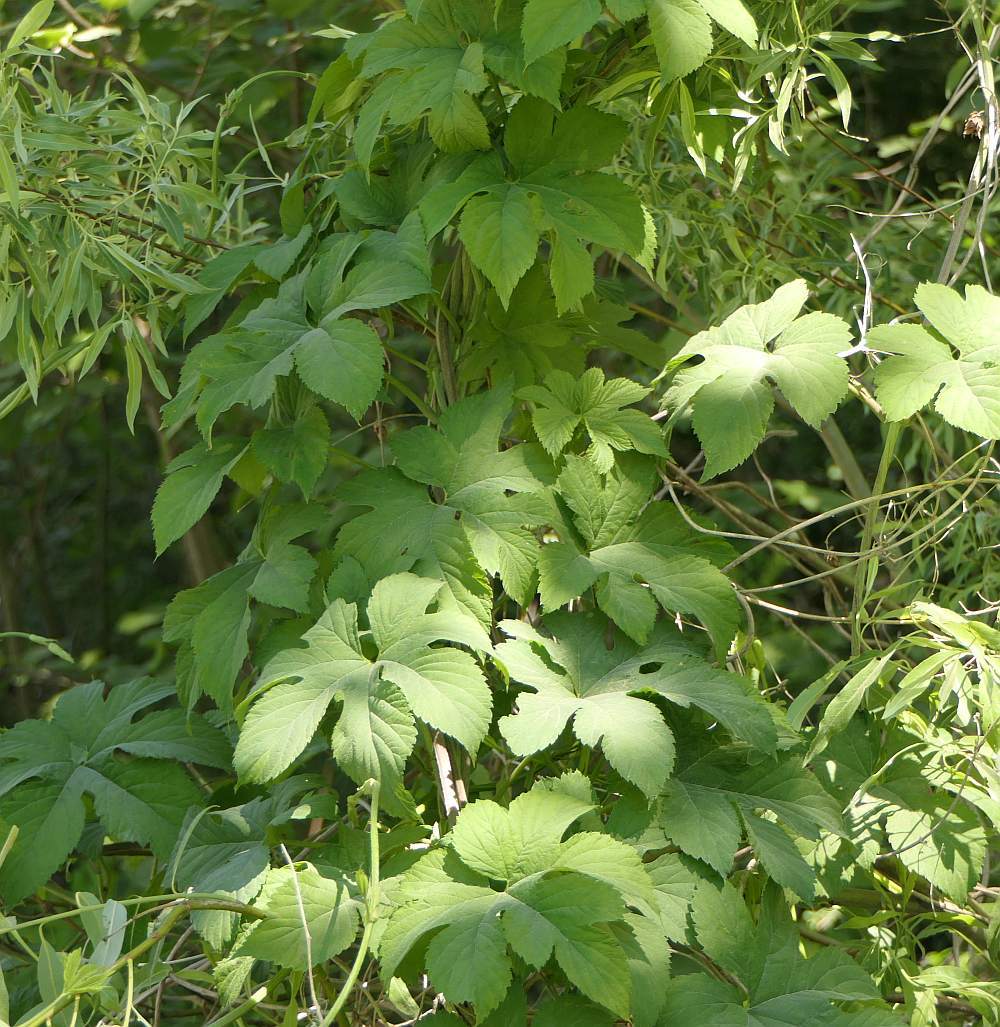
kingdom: Plantae
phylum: Tracheophyta
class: Magnoliopsida
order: Rosales
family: Cannabaceae
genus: Humulus
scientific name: Humulus lupulus
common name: Hop
